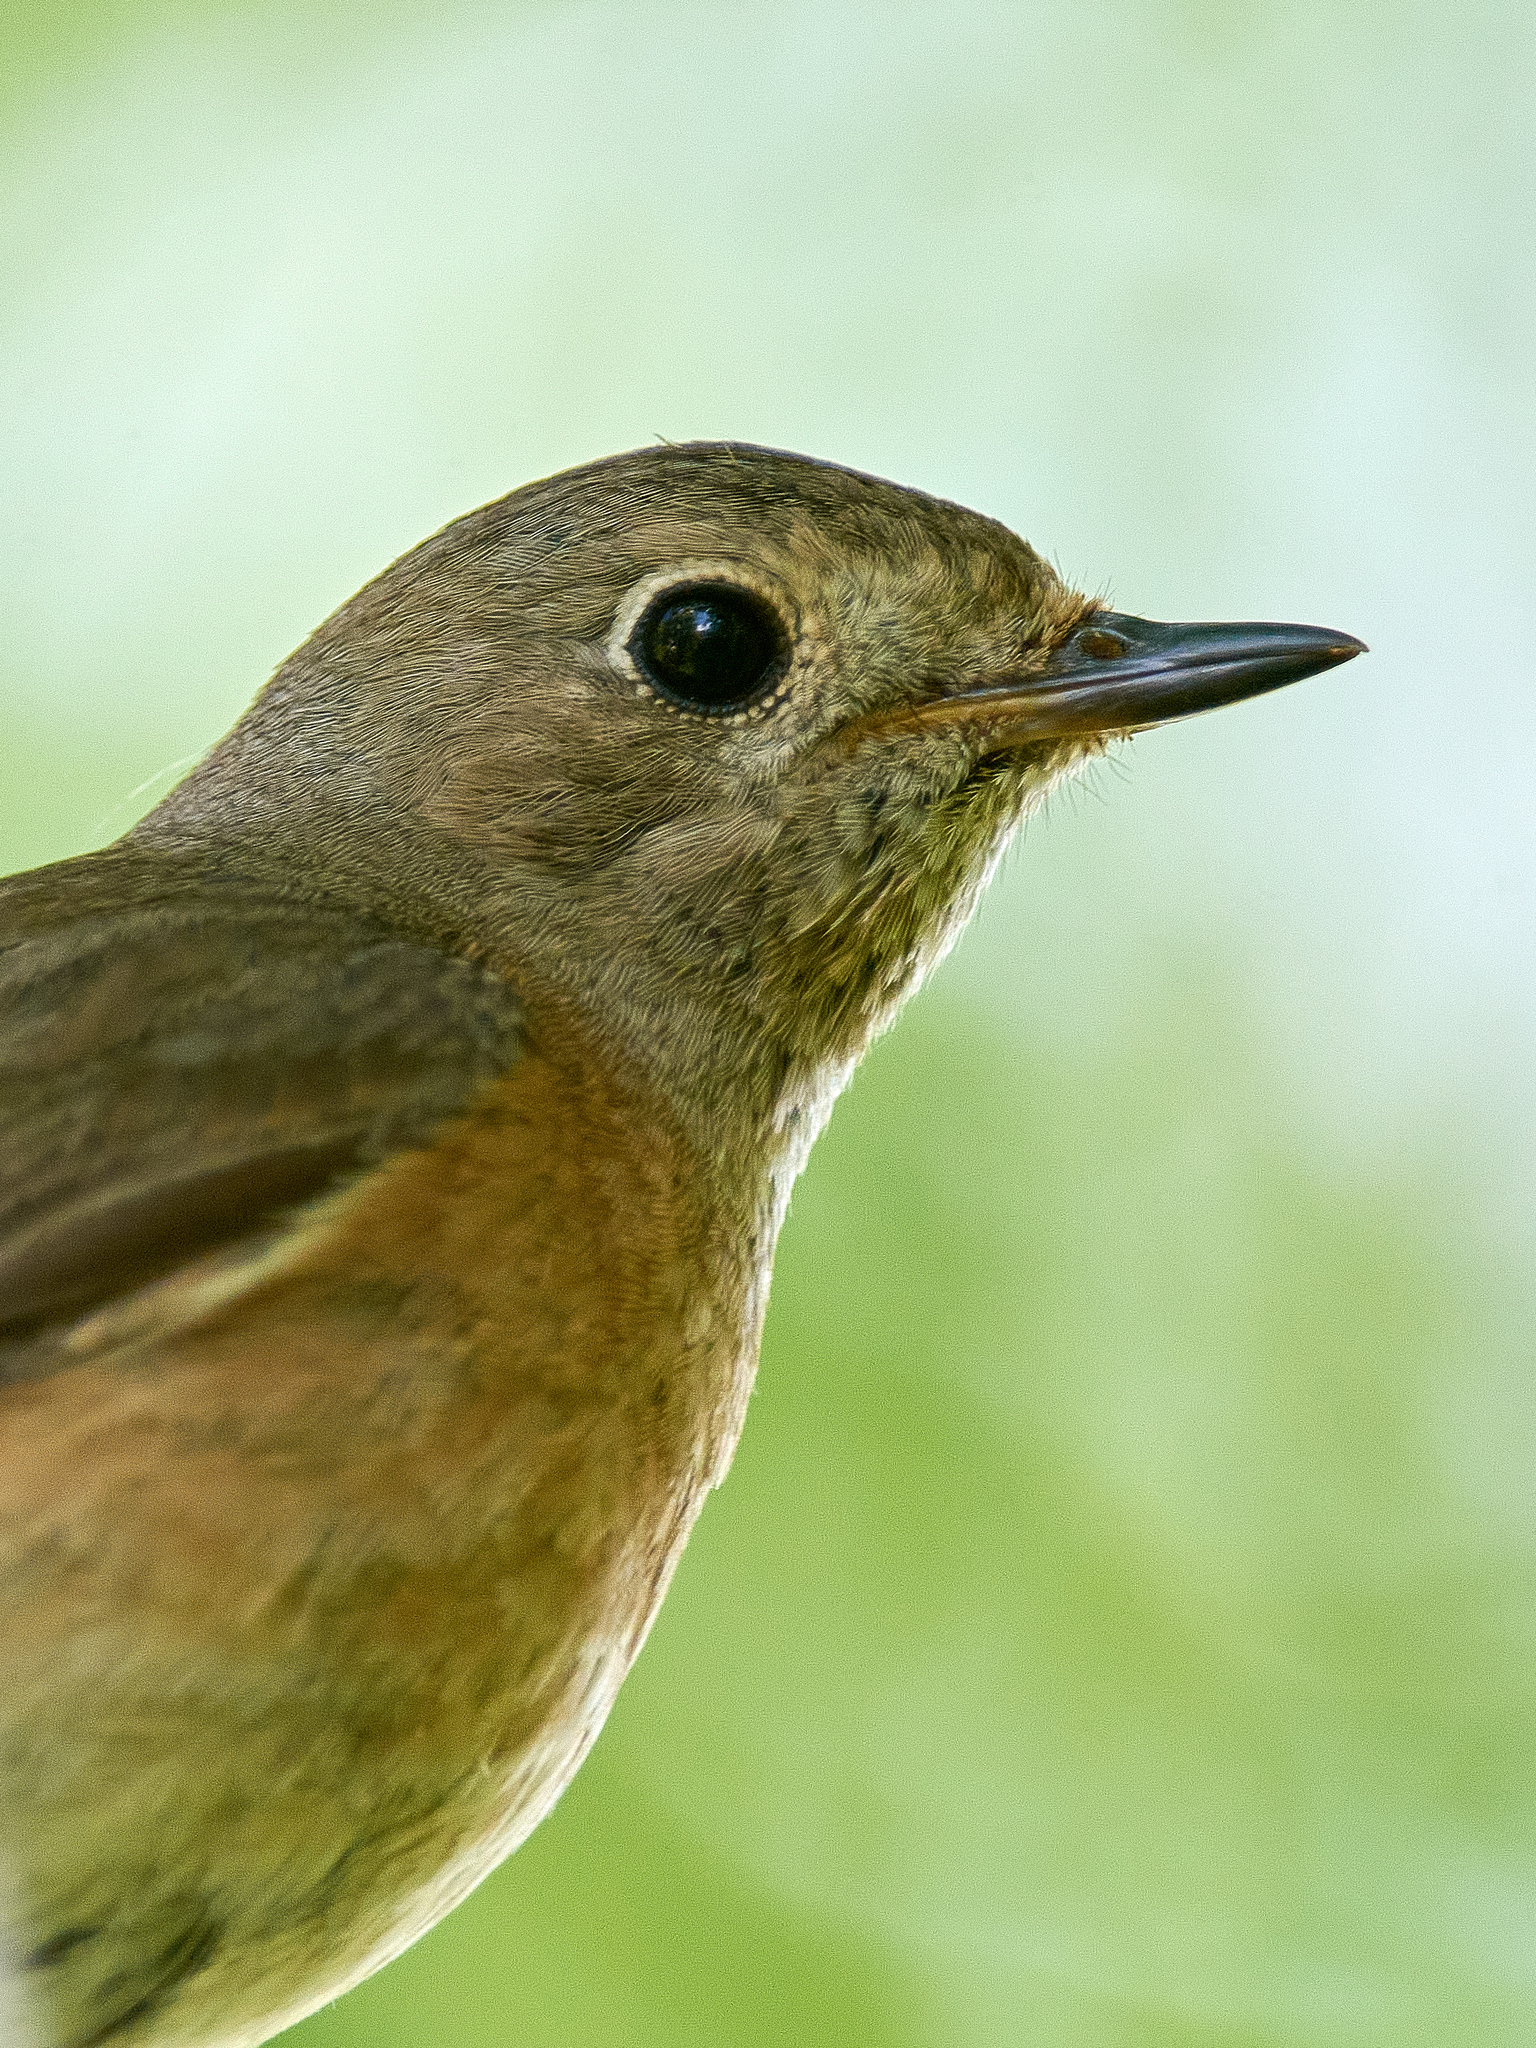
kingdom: Animalia
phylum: Chordata
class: Aves
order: Passeriformes
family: Muscicapidae
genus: Phoenicurus
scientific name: Phoenicurus phoenicurus
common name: Common redstart
